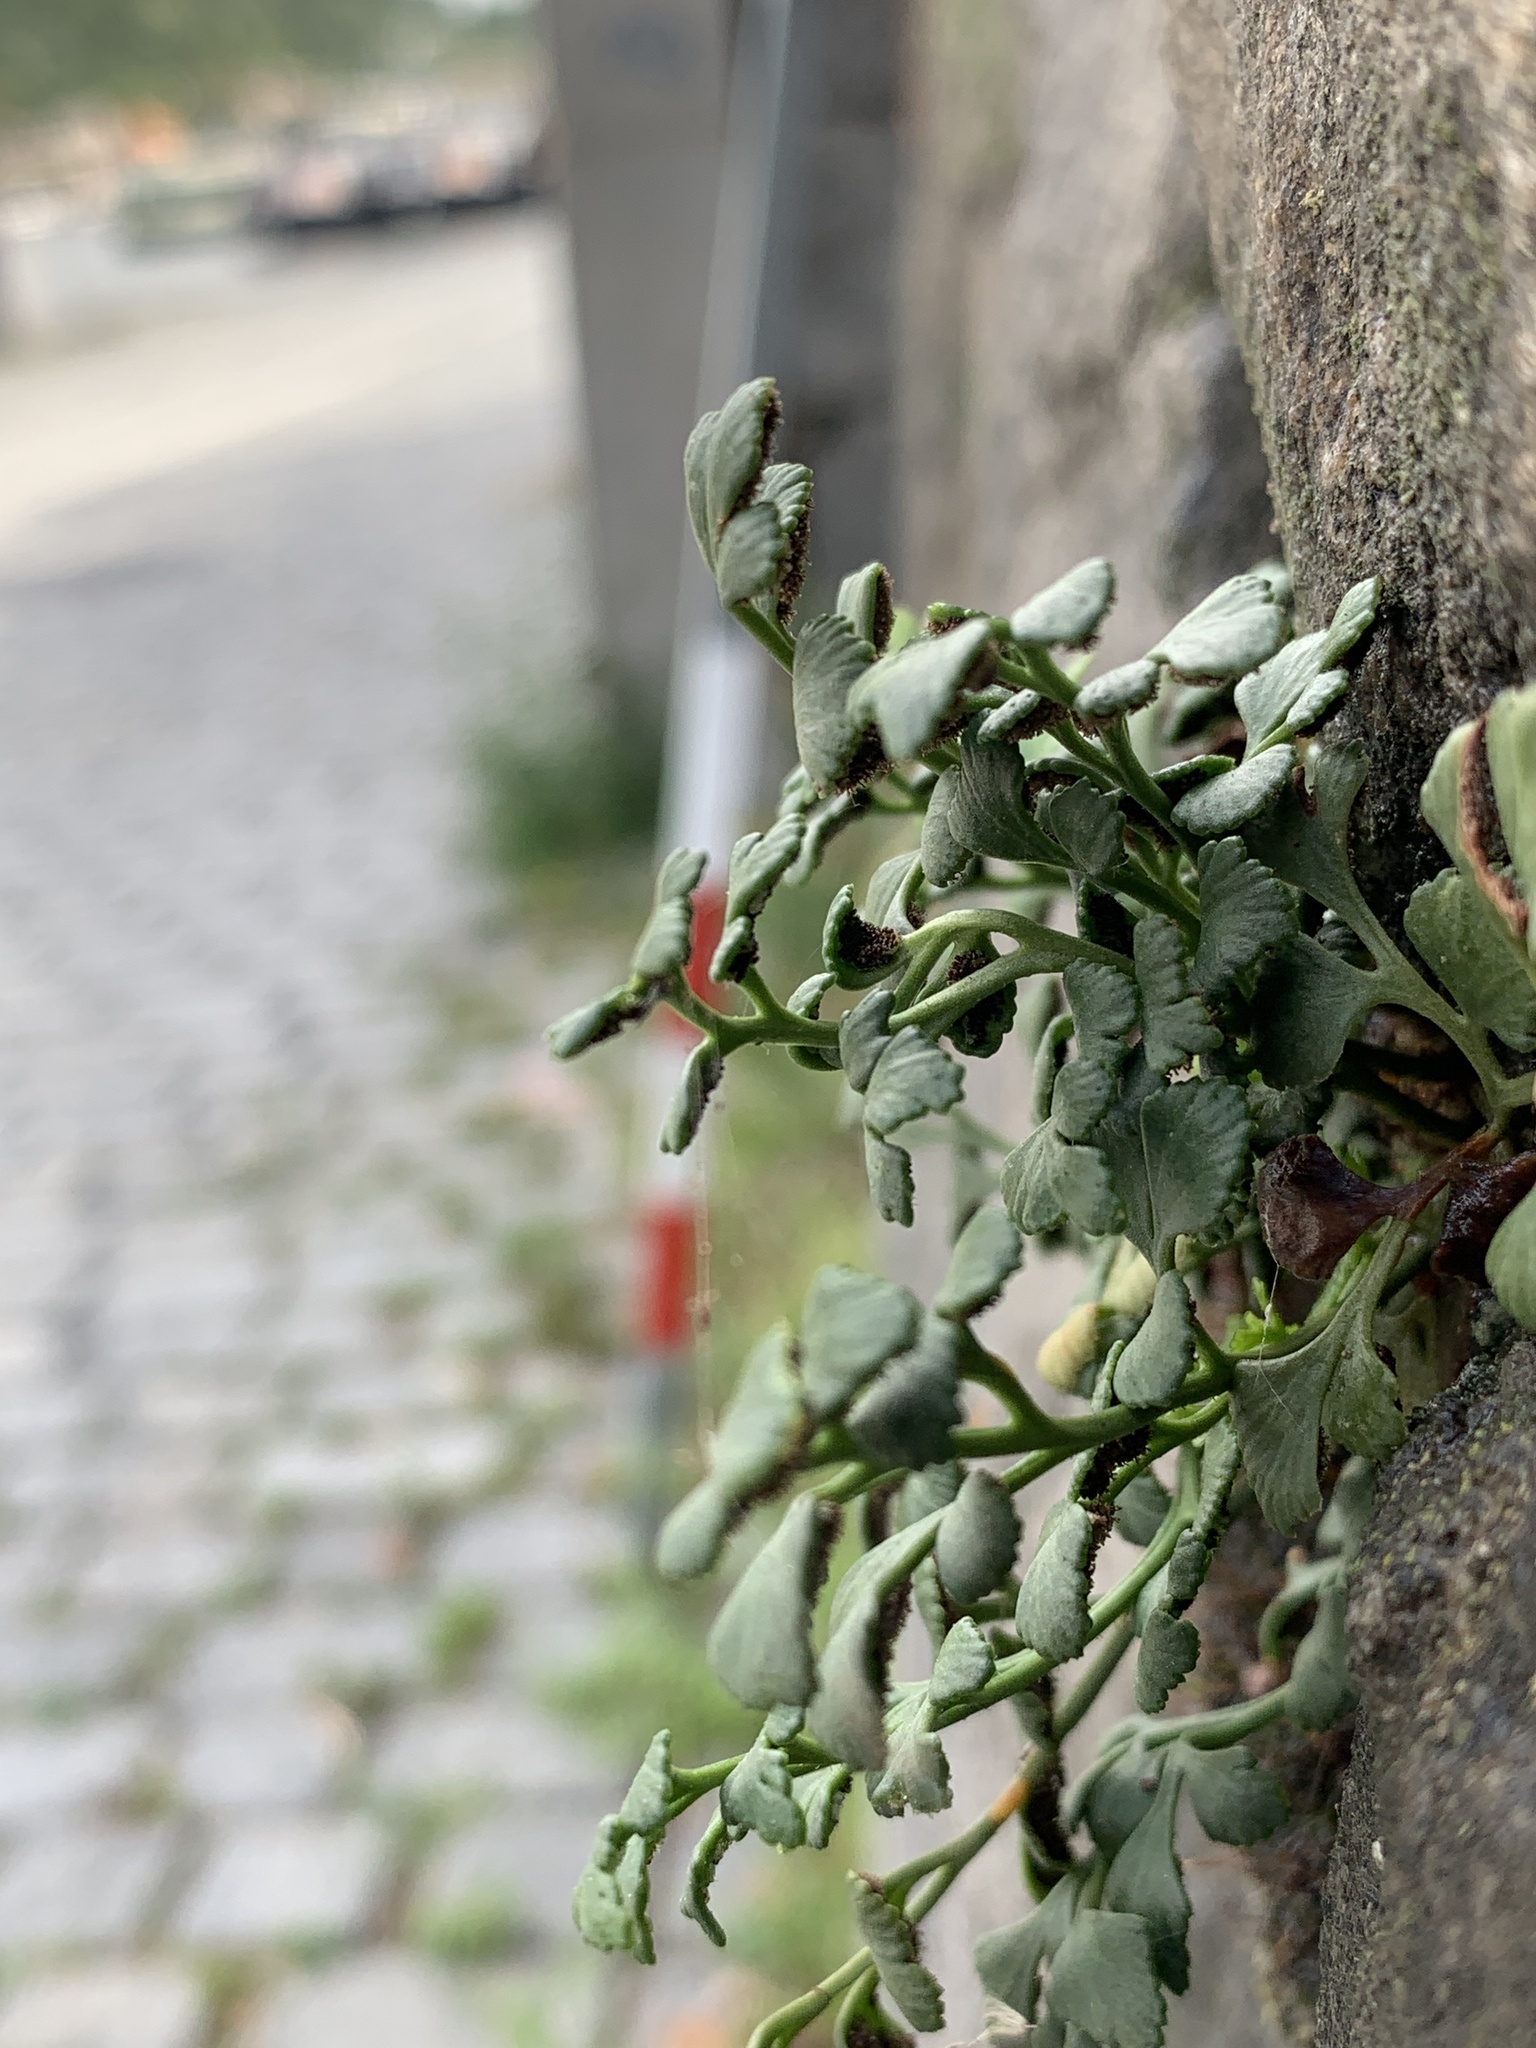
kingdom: Plantae
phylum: Tracheophyta
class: Polypodiopsida
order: Polypodiales
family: Aspleniaceae
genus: Asplenium
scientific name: Asplenium ruta-muraria
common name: Wall-rue
